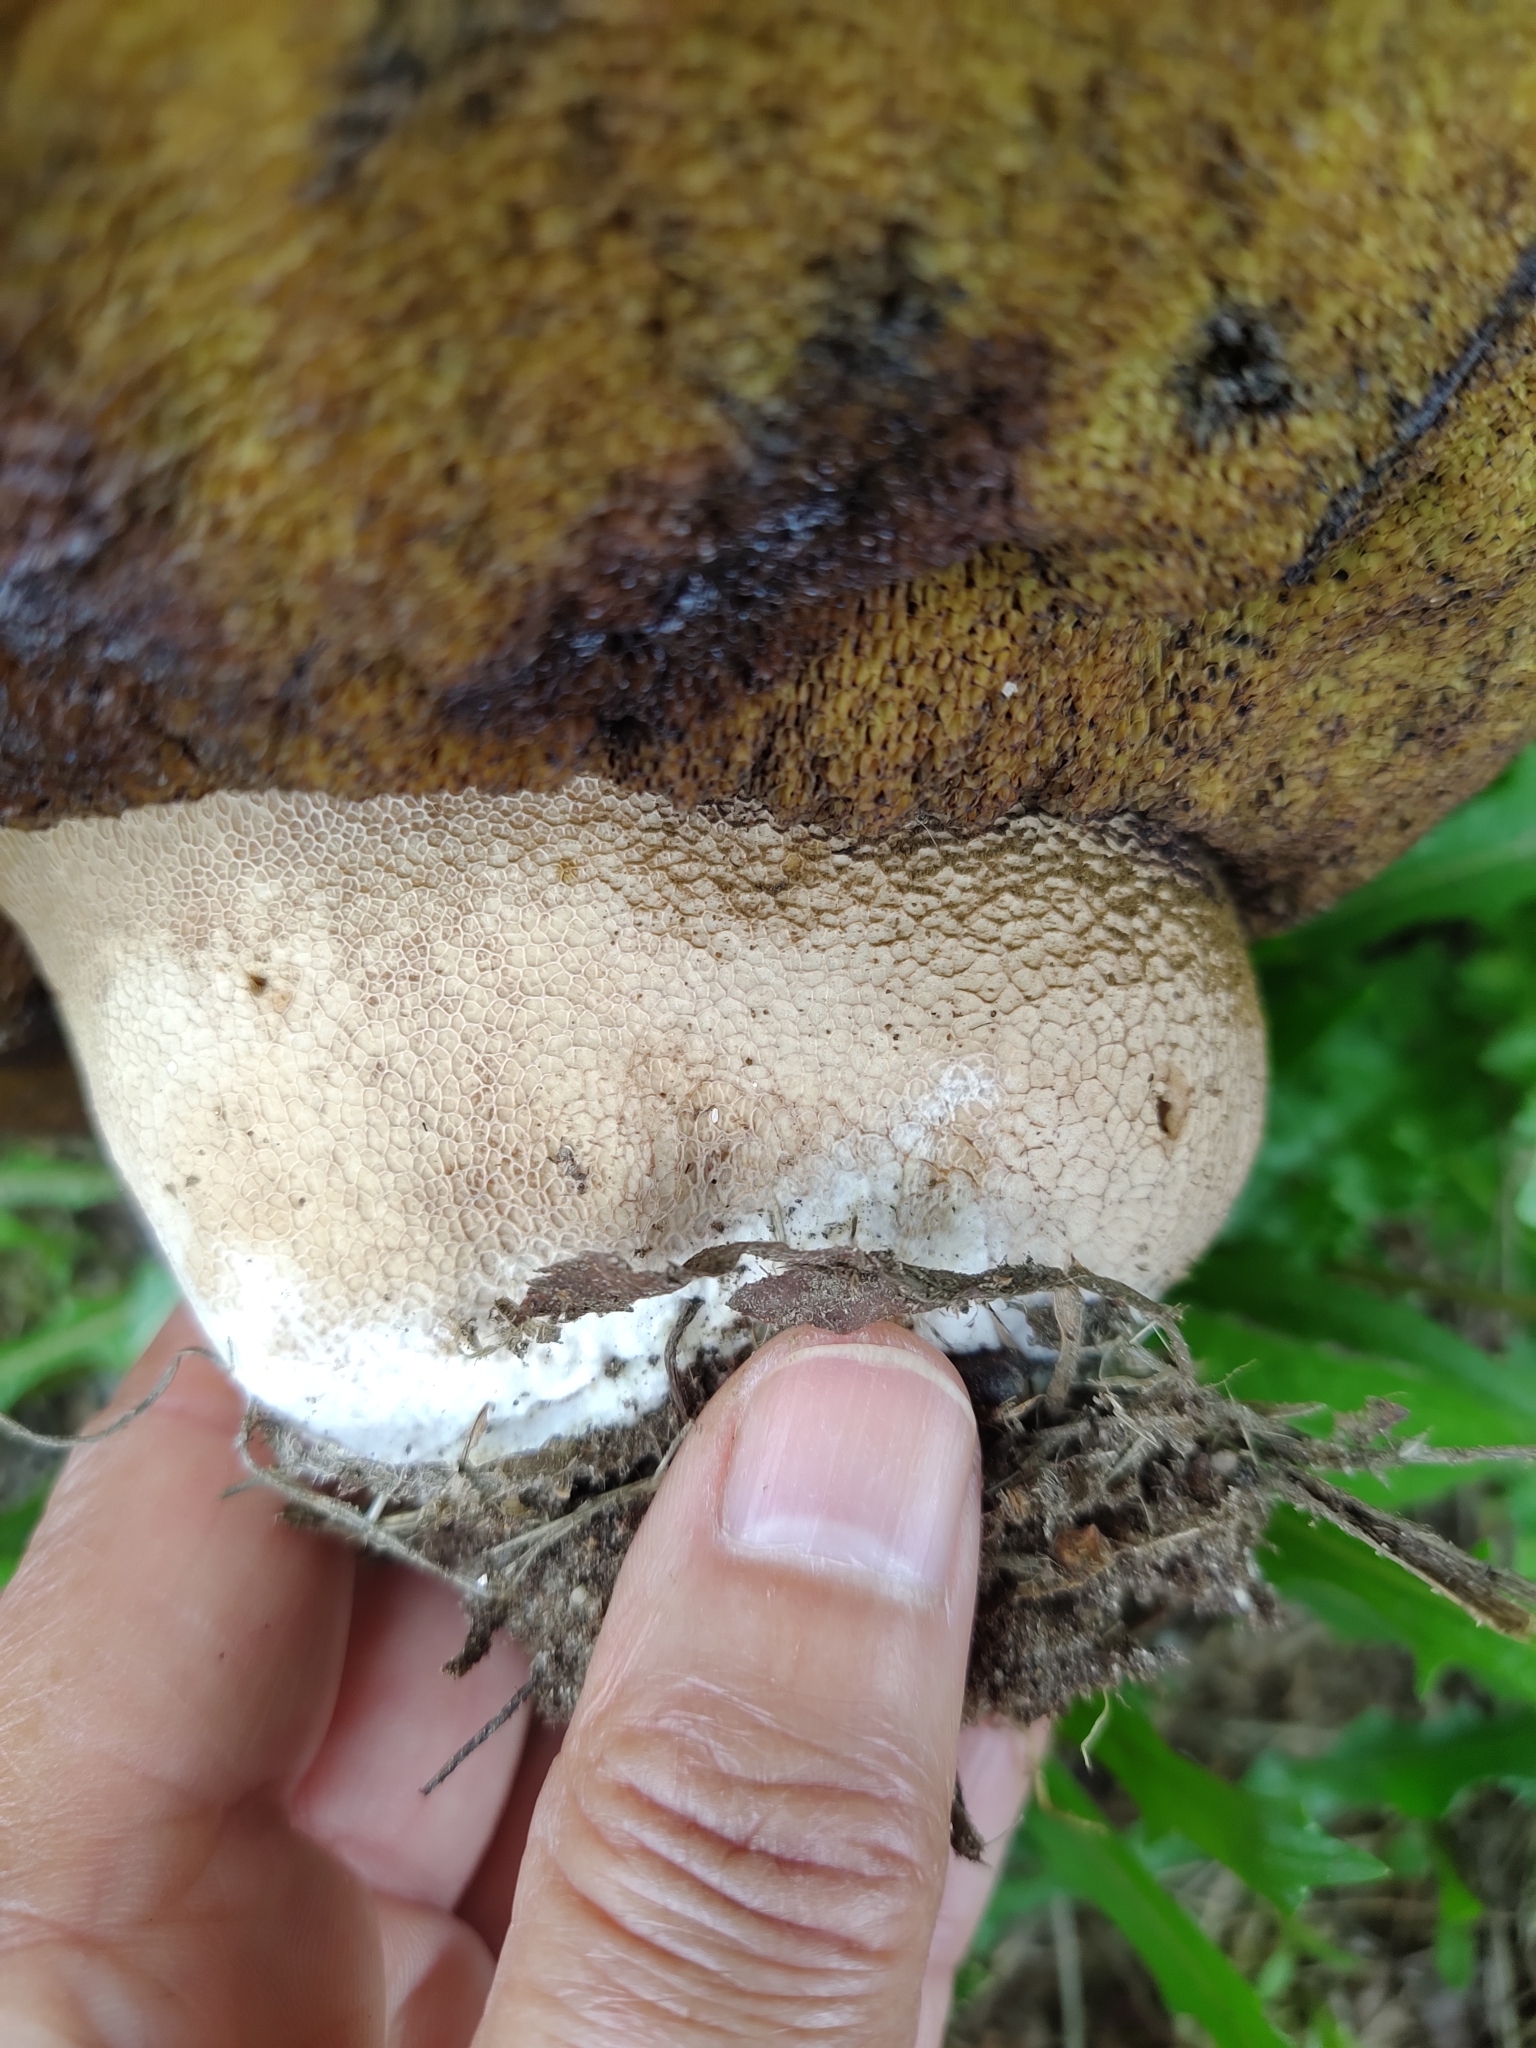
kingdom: Fungi
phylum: Basidiomycota
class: Agaricomycetes
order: Boletales
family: Boletaceae
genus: Boletus
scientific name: Boletus reticulatus
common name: Summer bolete
